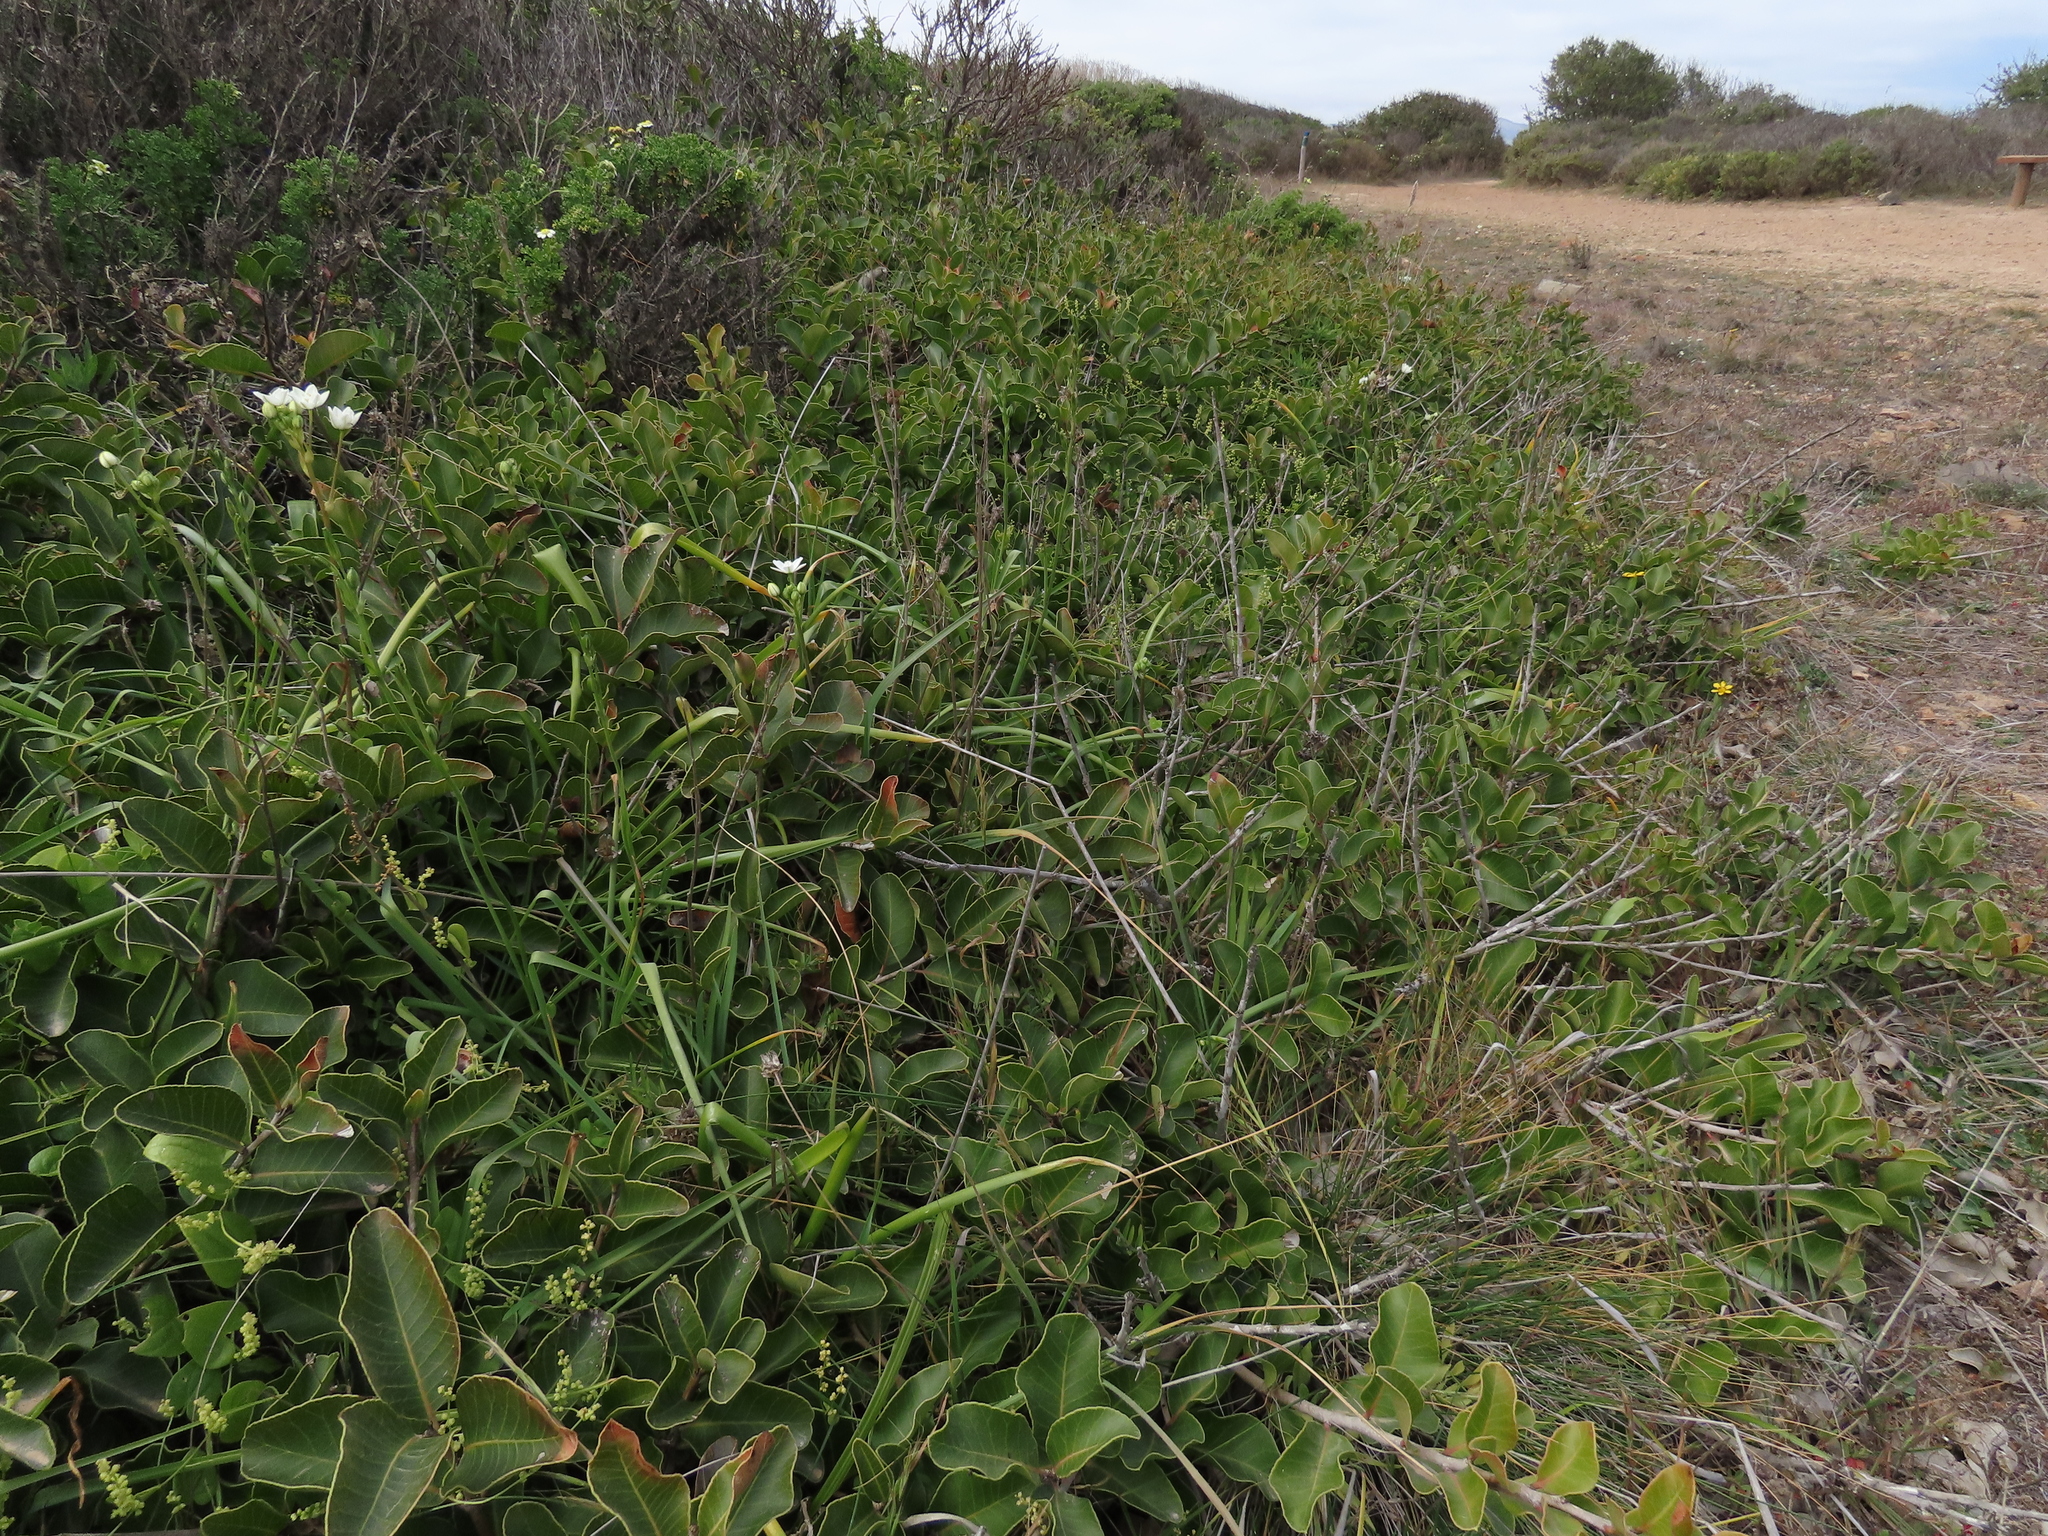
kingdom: Plantae
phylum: Tracheophyta
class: Magnoliopsida
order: Sapindales
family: Anacardiaceae
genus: Lithraea
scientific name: Lithraea caustica
